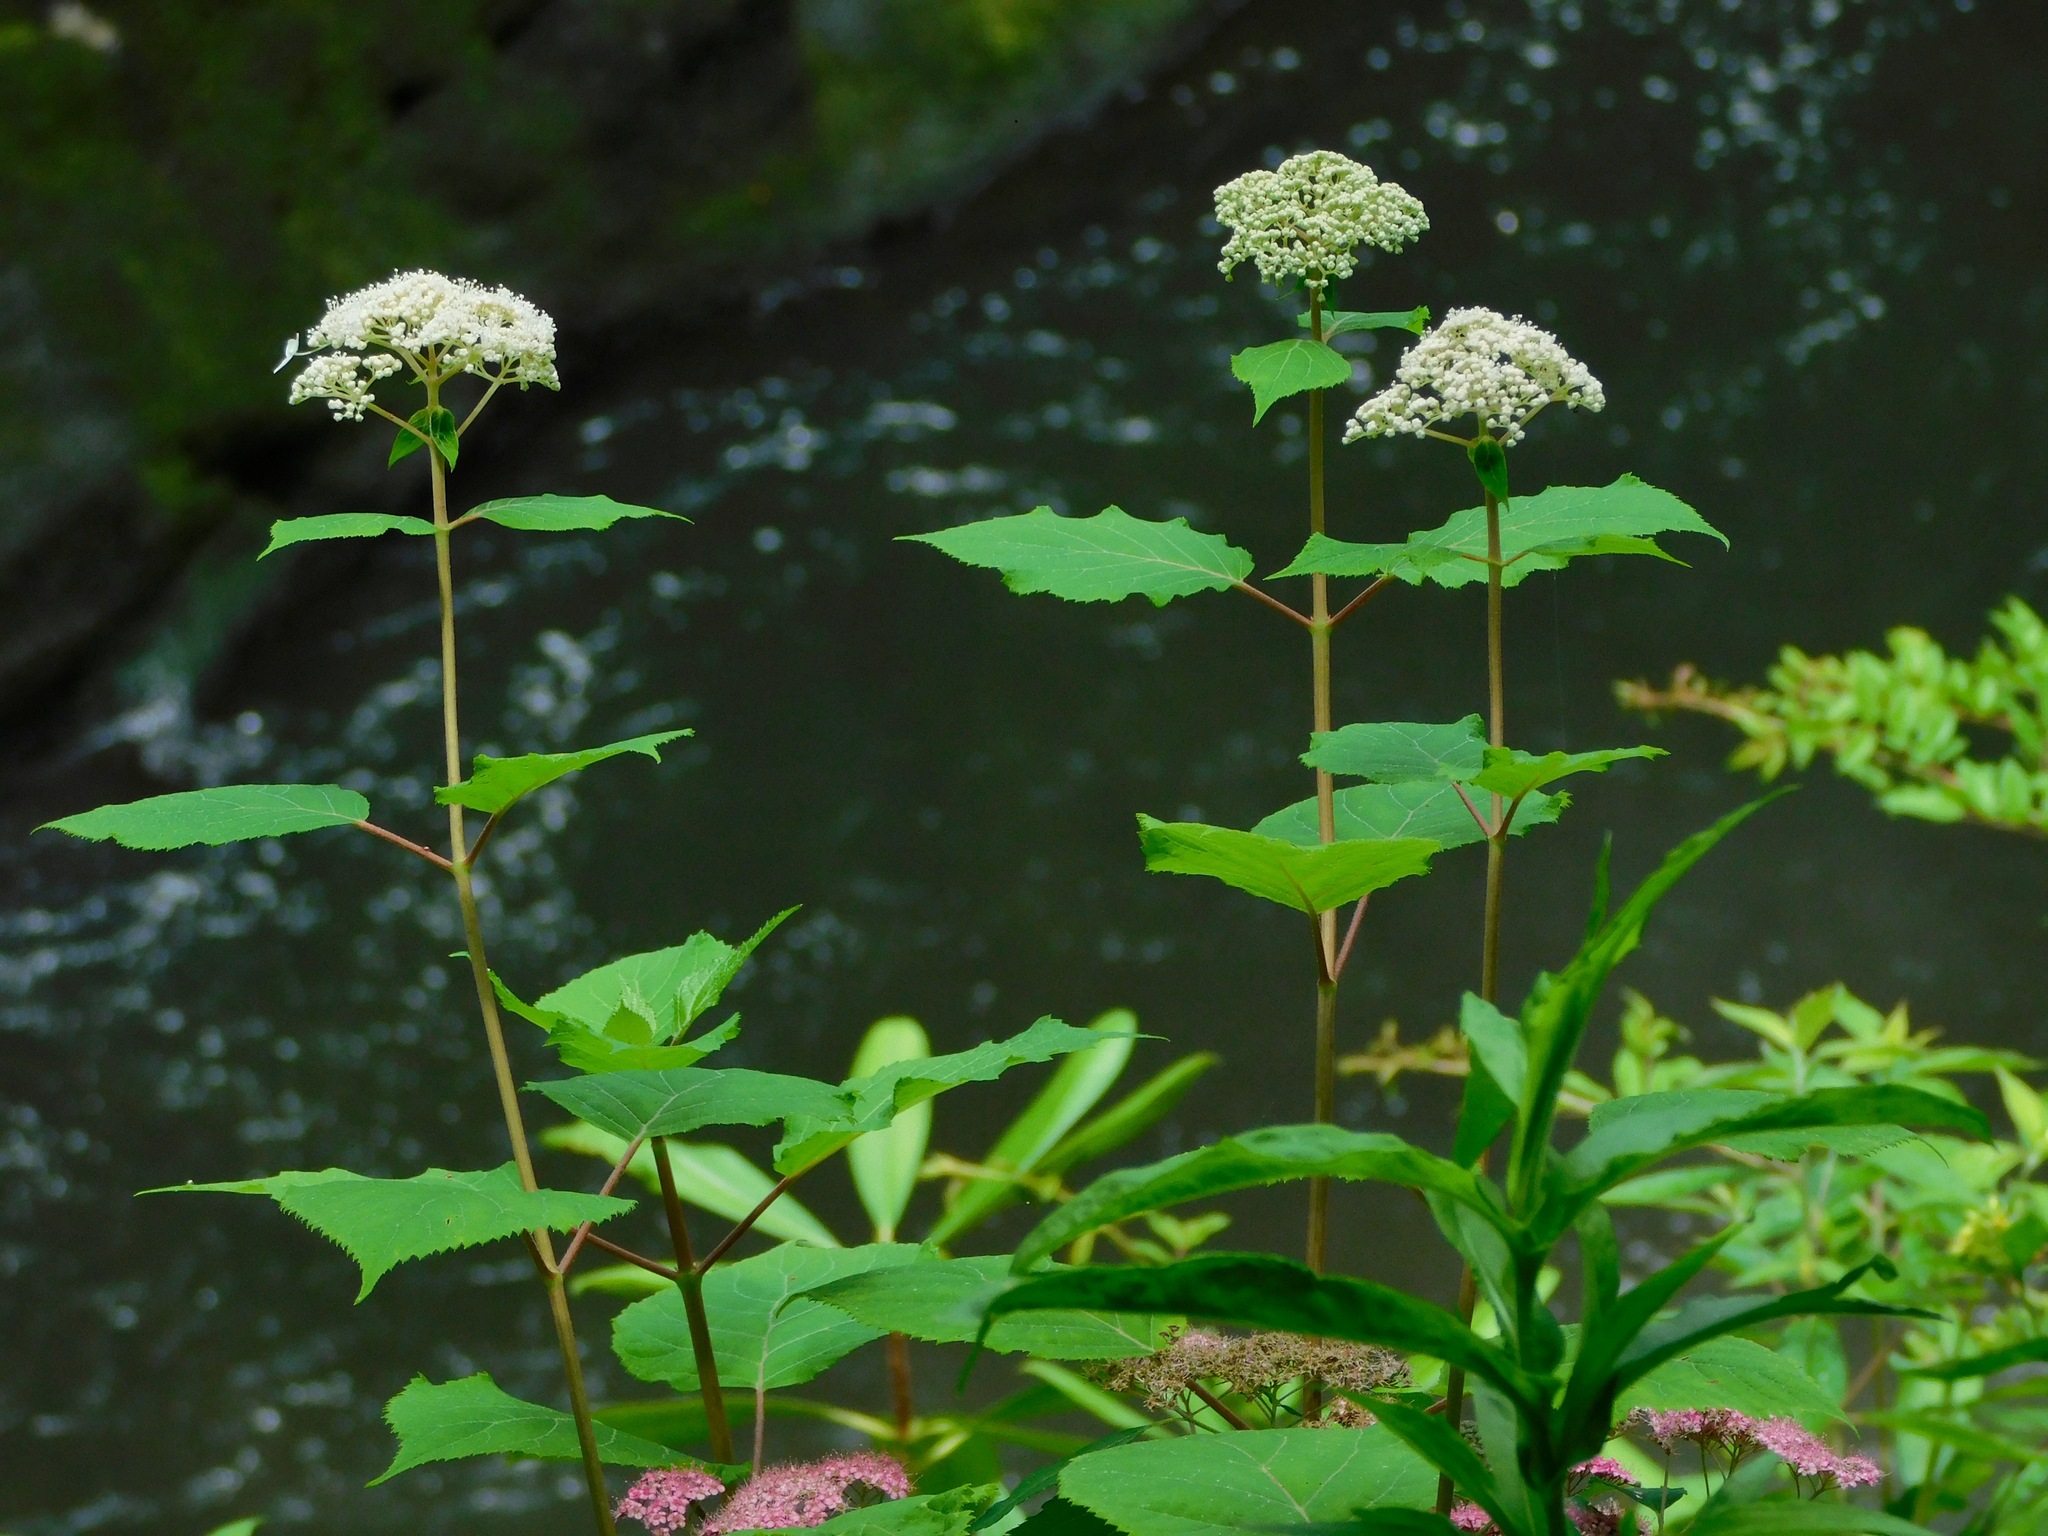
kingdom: Plantae
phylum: Tracheophyta
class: Magnoliopsida
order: Cornales
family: Hydrangeaceae
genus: Hydrangea
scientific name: Hydrangea arborescens
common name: Sevenbark
